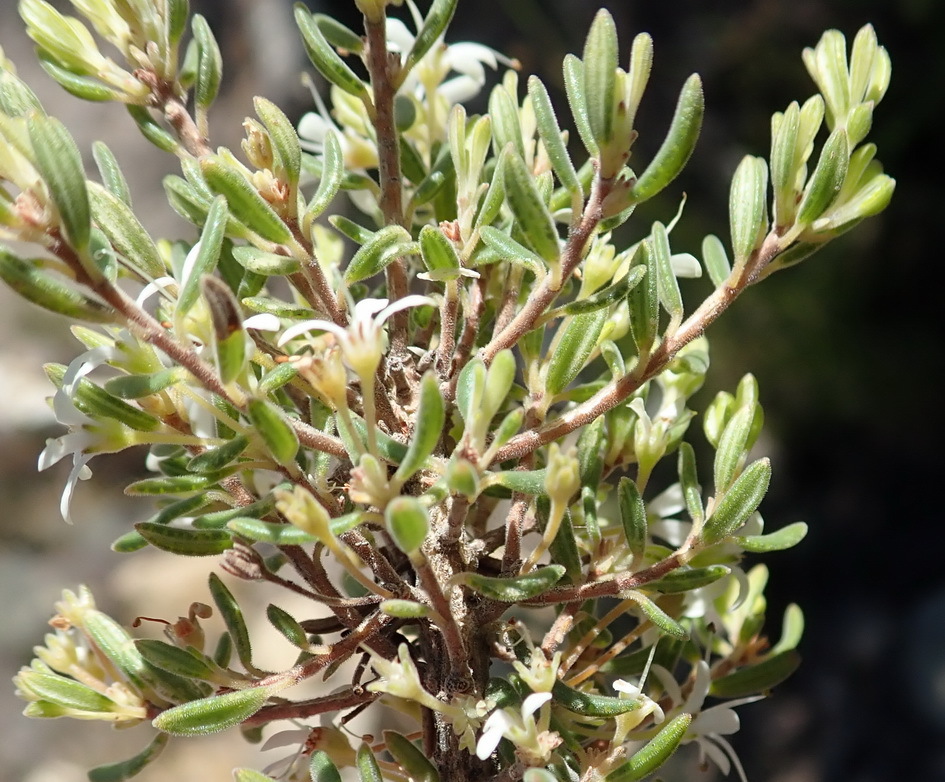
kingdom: Plantae
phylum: Tracheophyta
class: Magnoliopsida
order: Sapindales
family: Rutaceae
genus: Agathosma
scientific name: Agathosma mundtii
